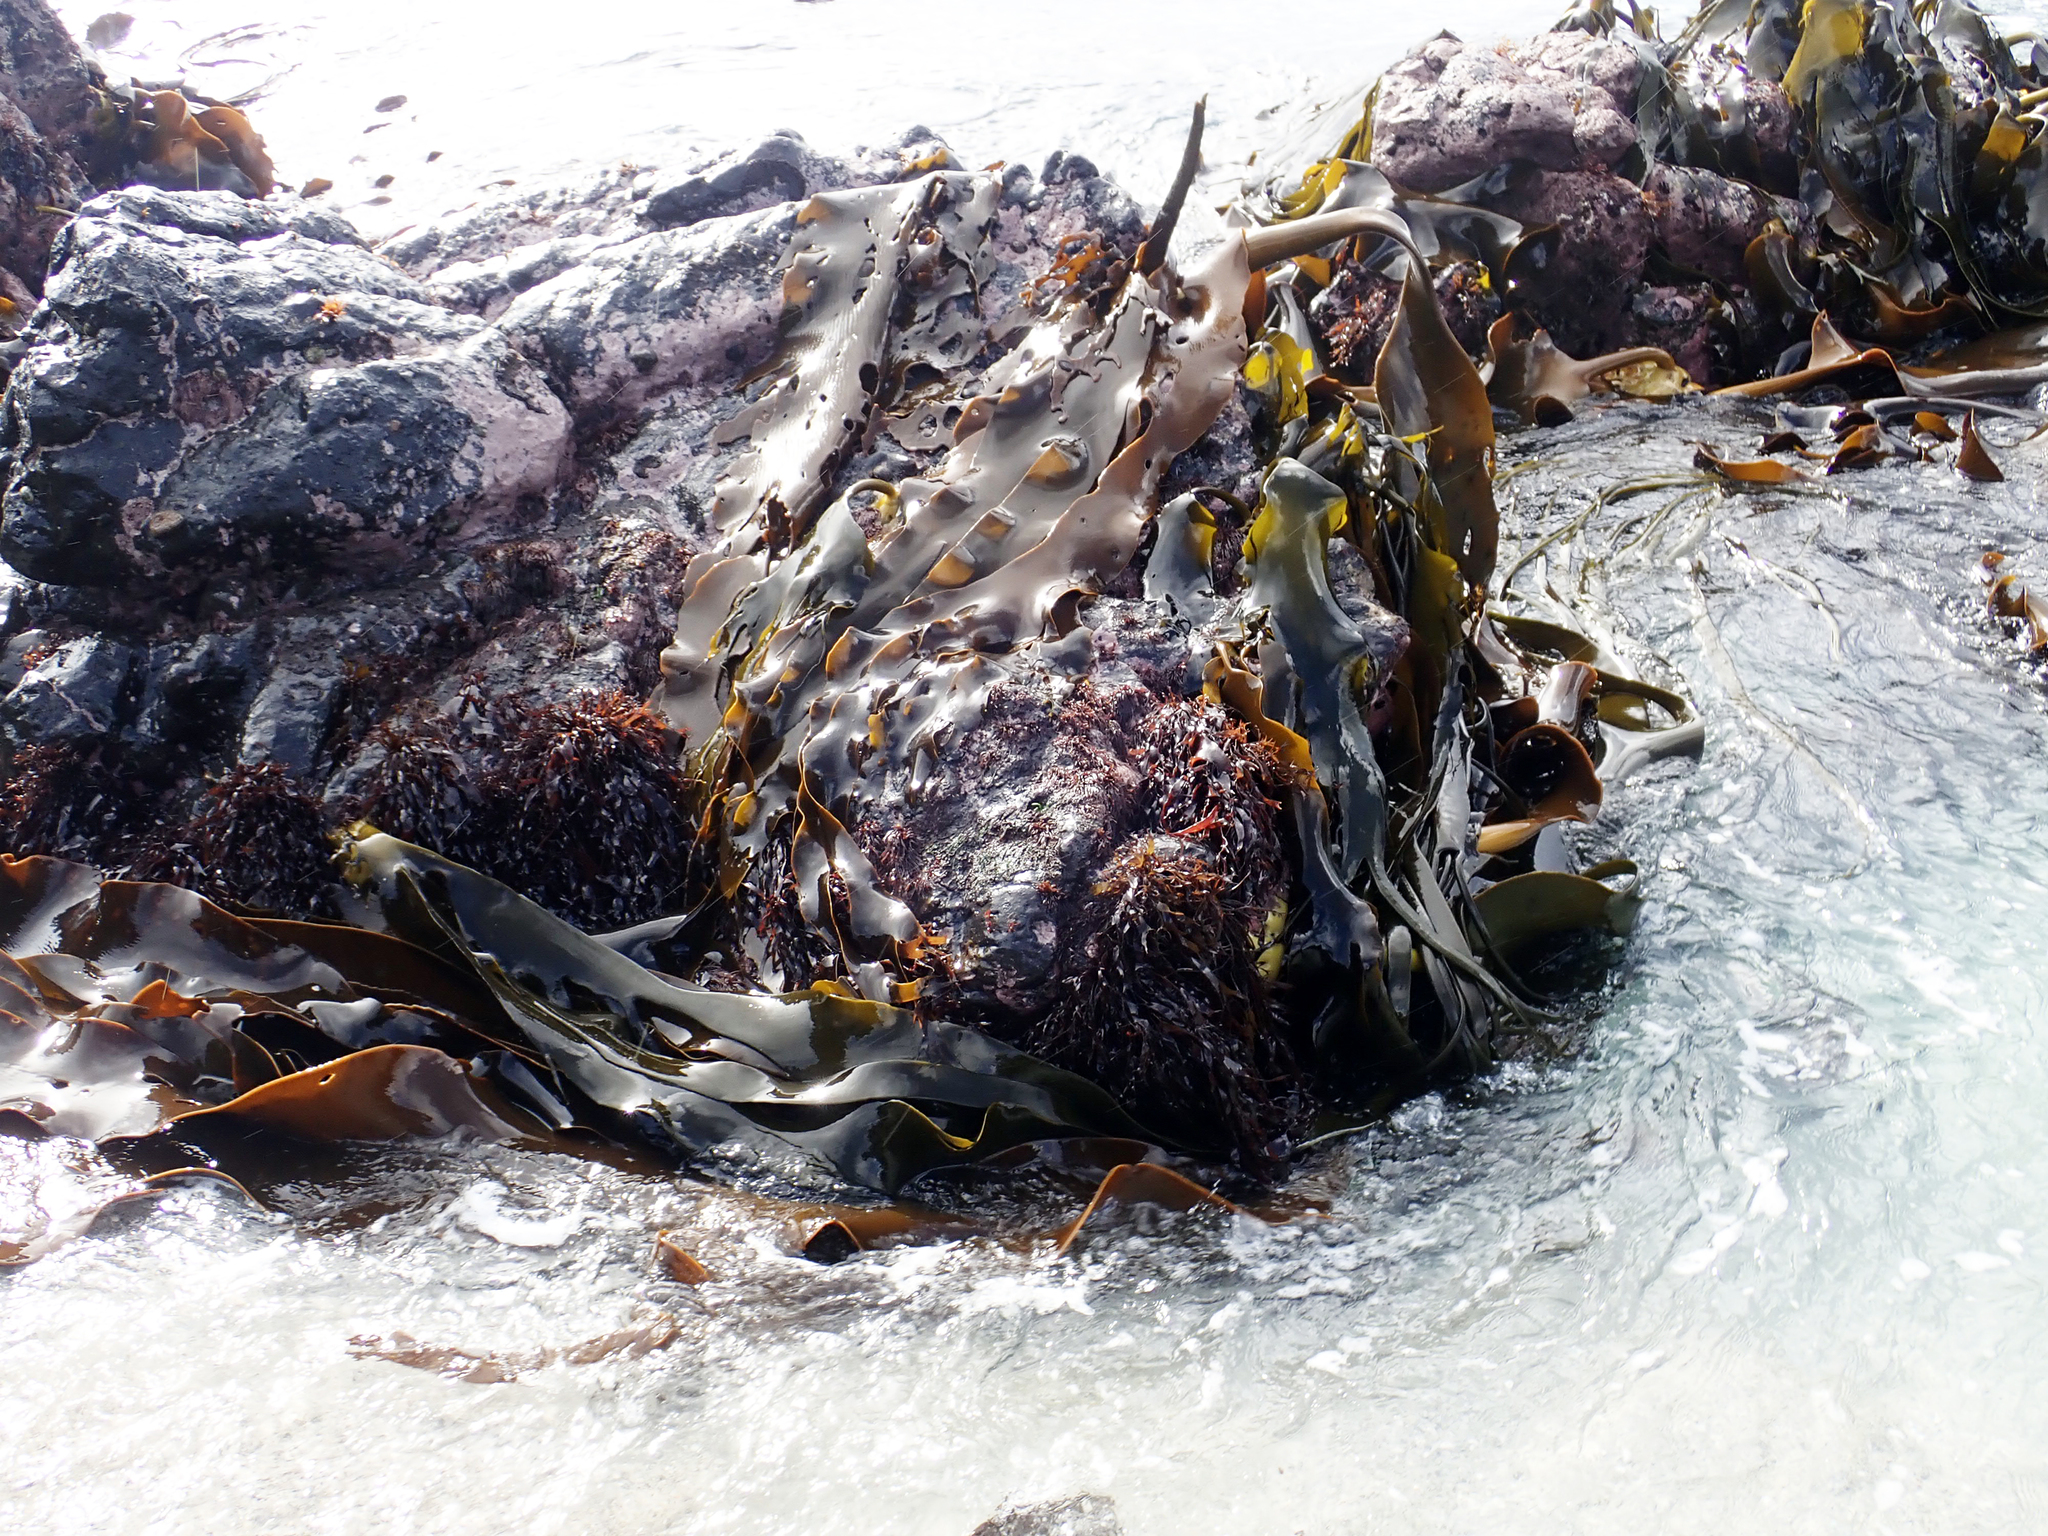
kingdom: Chromista
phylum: Ochrophyta
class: Phaeophyceae
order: Fucales
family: Durvillaeaceae
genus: Durvillaea
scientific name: Durvillaea antarctica
